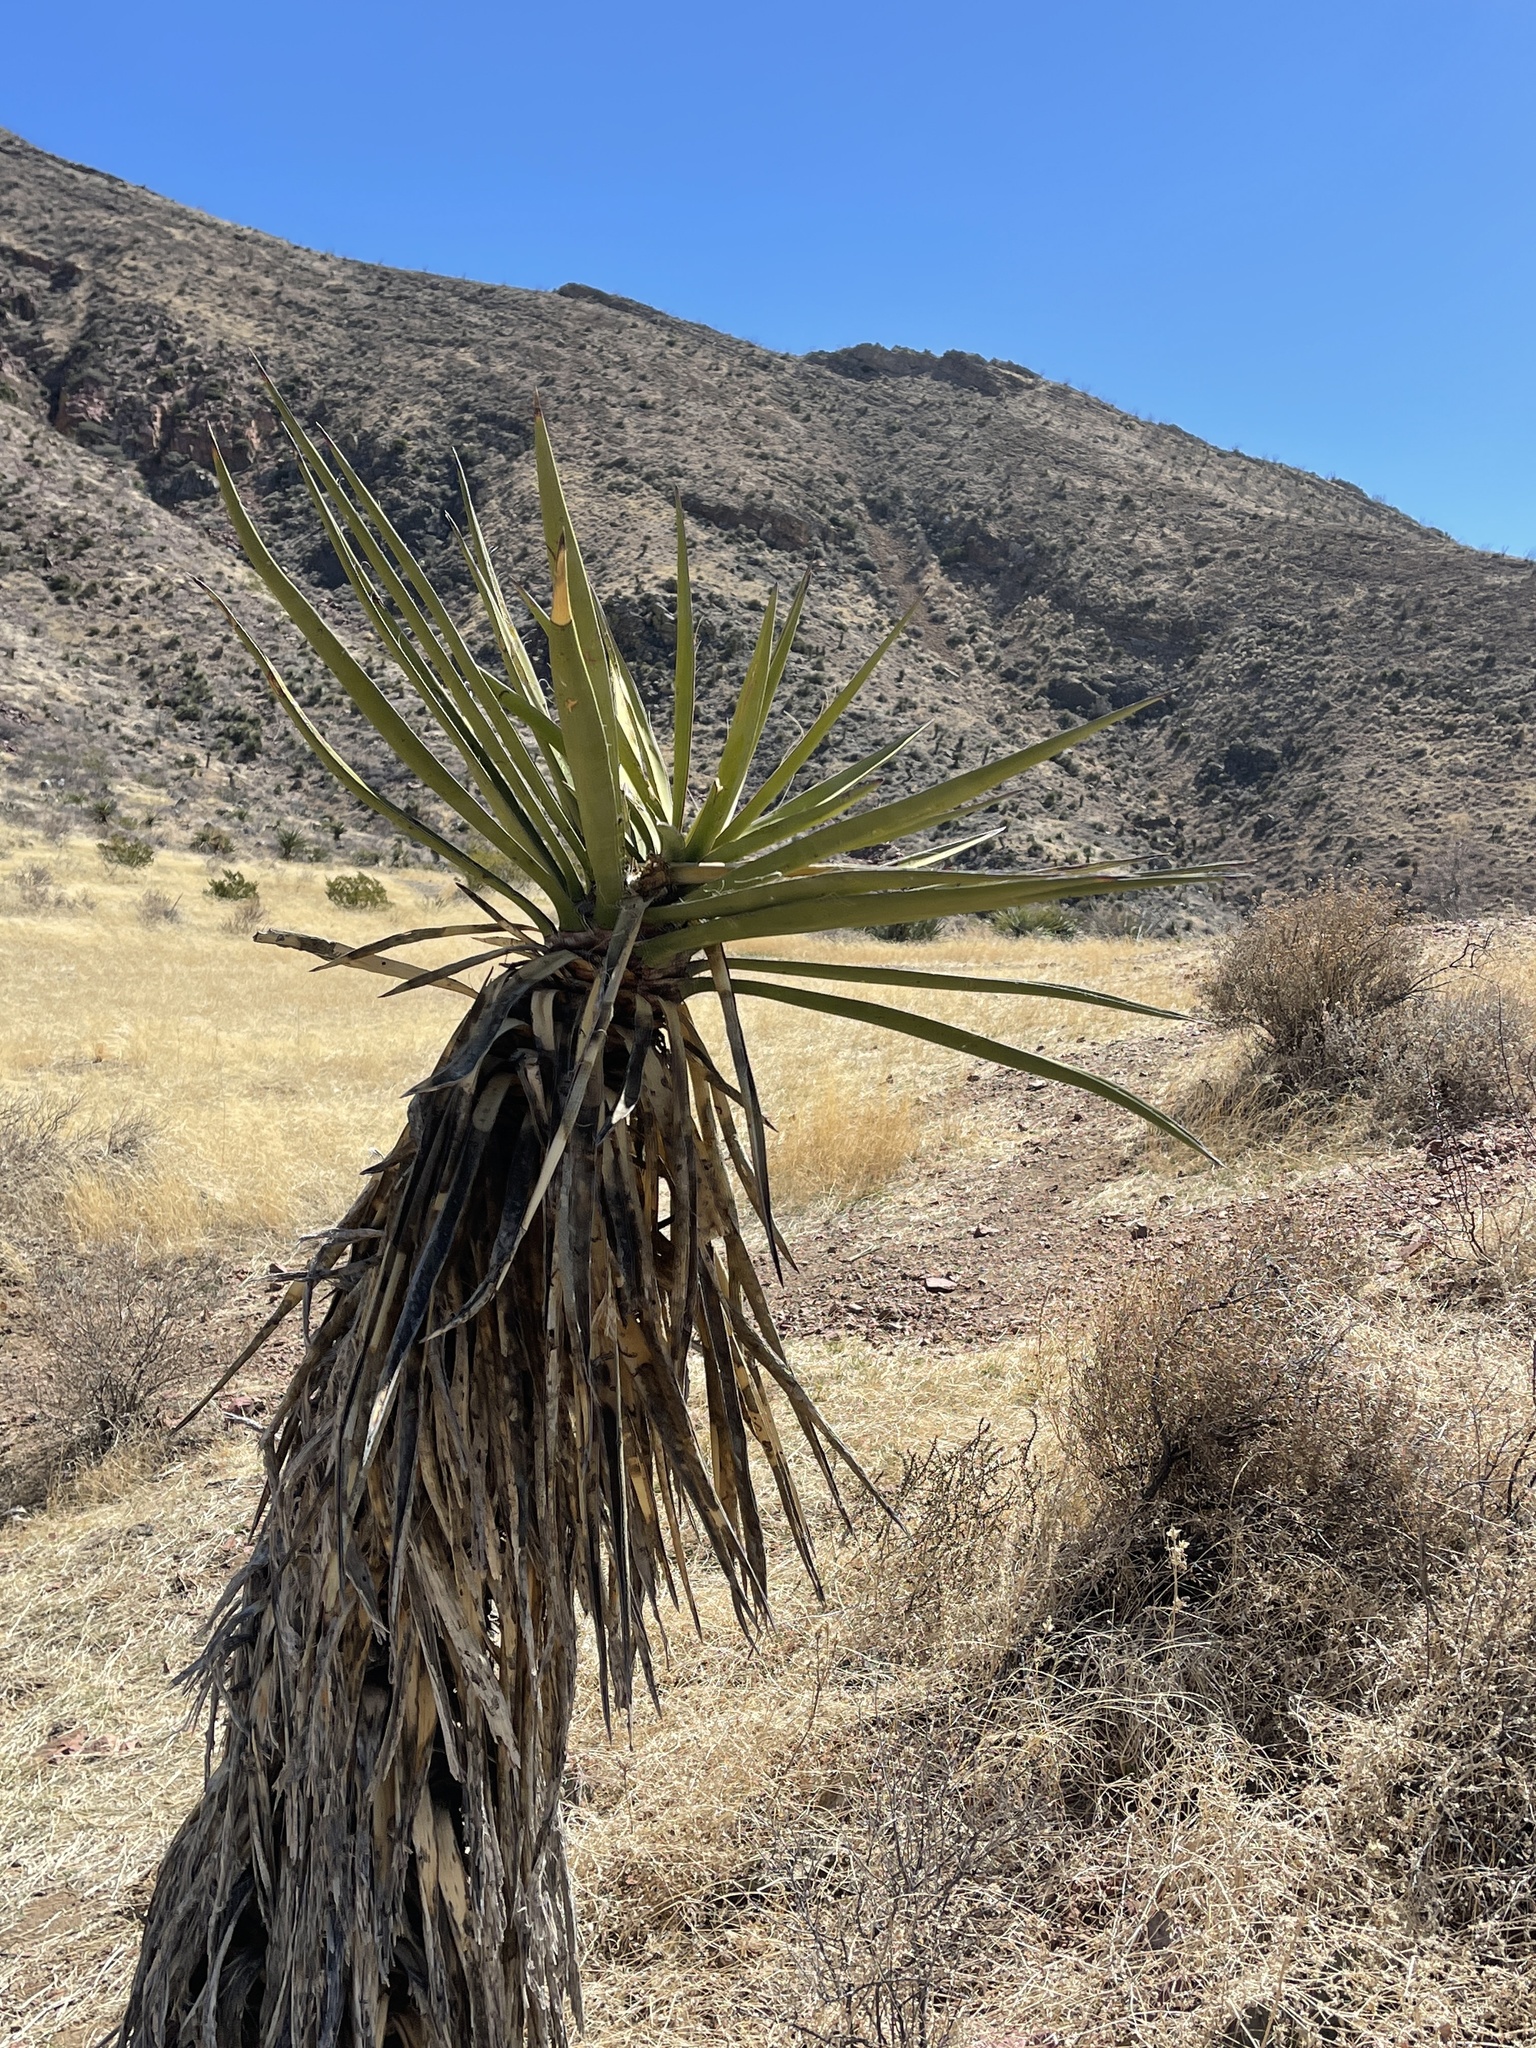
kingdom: Plantae
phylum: Tracheophyta
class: Liliopsida
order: Asparagales
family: Asparagaceae
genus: Yucca
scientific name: Yucca treculiana
